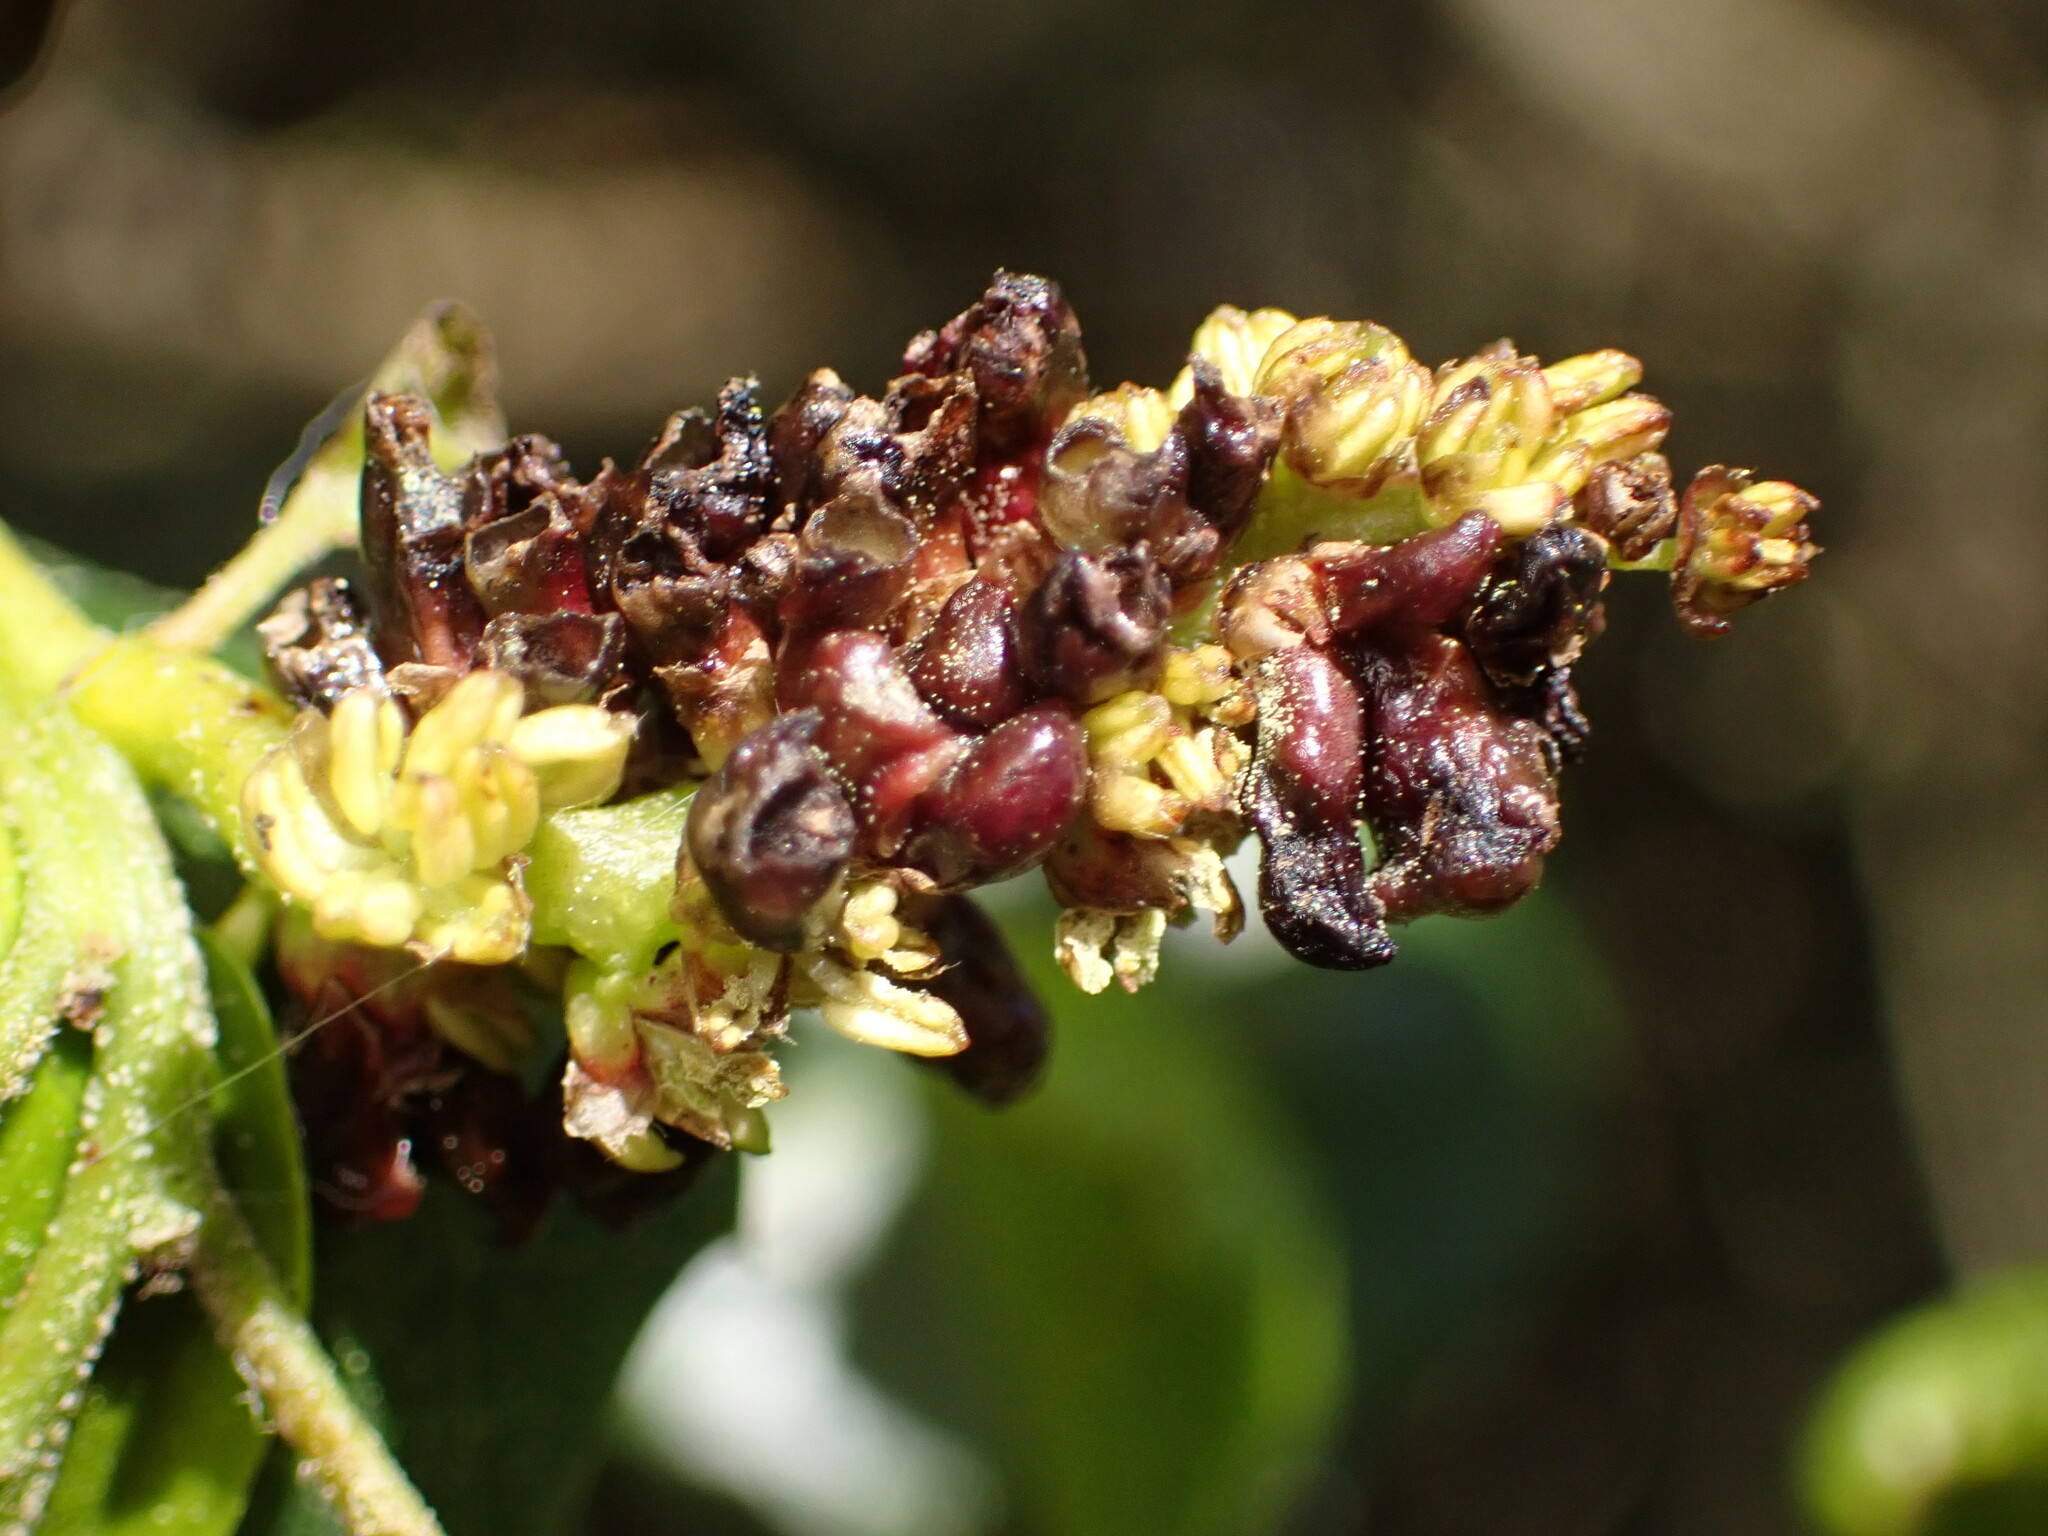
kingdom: Animalia
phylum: Arthropoda
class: Insecta
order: Hymenoptera
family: Cynipidae
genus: Dryocosmus
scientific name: Dryocosmus
